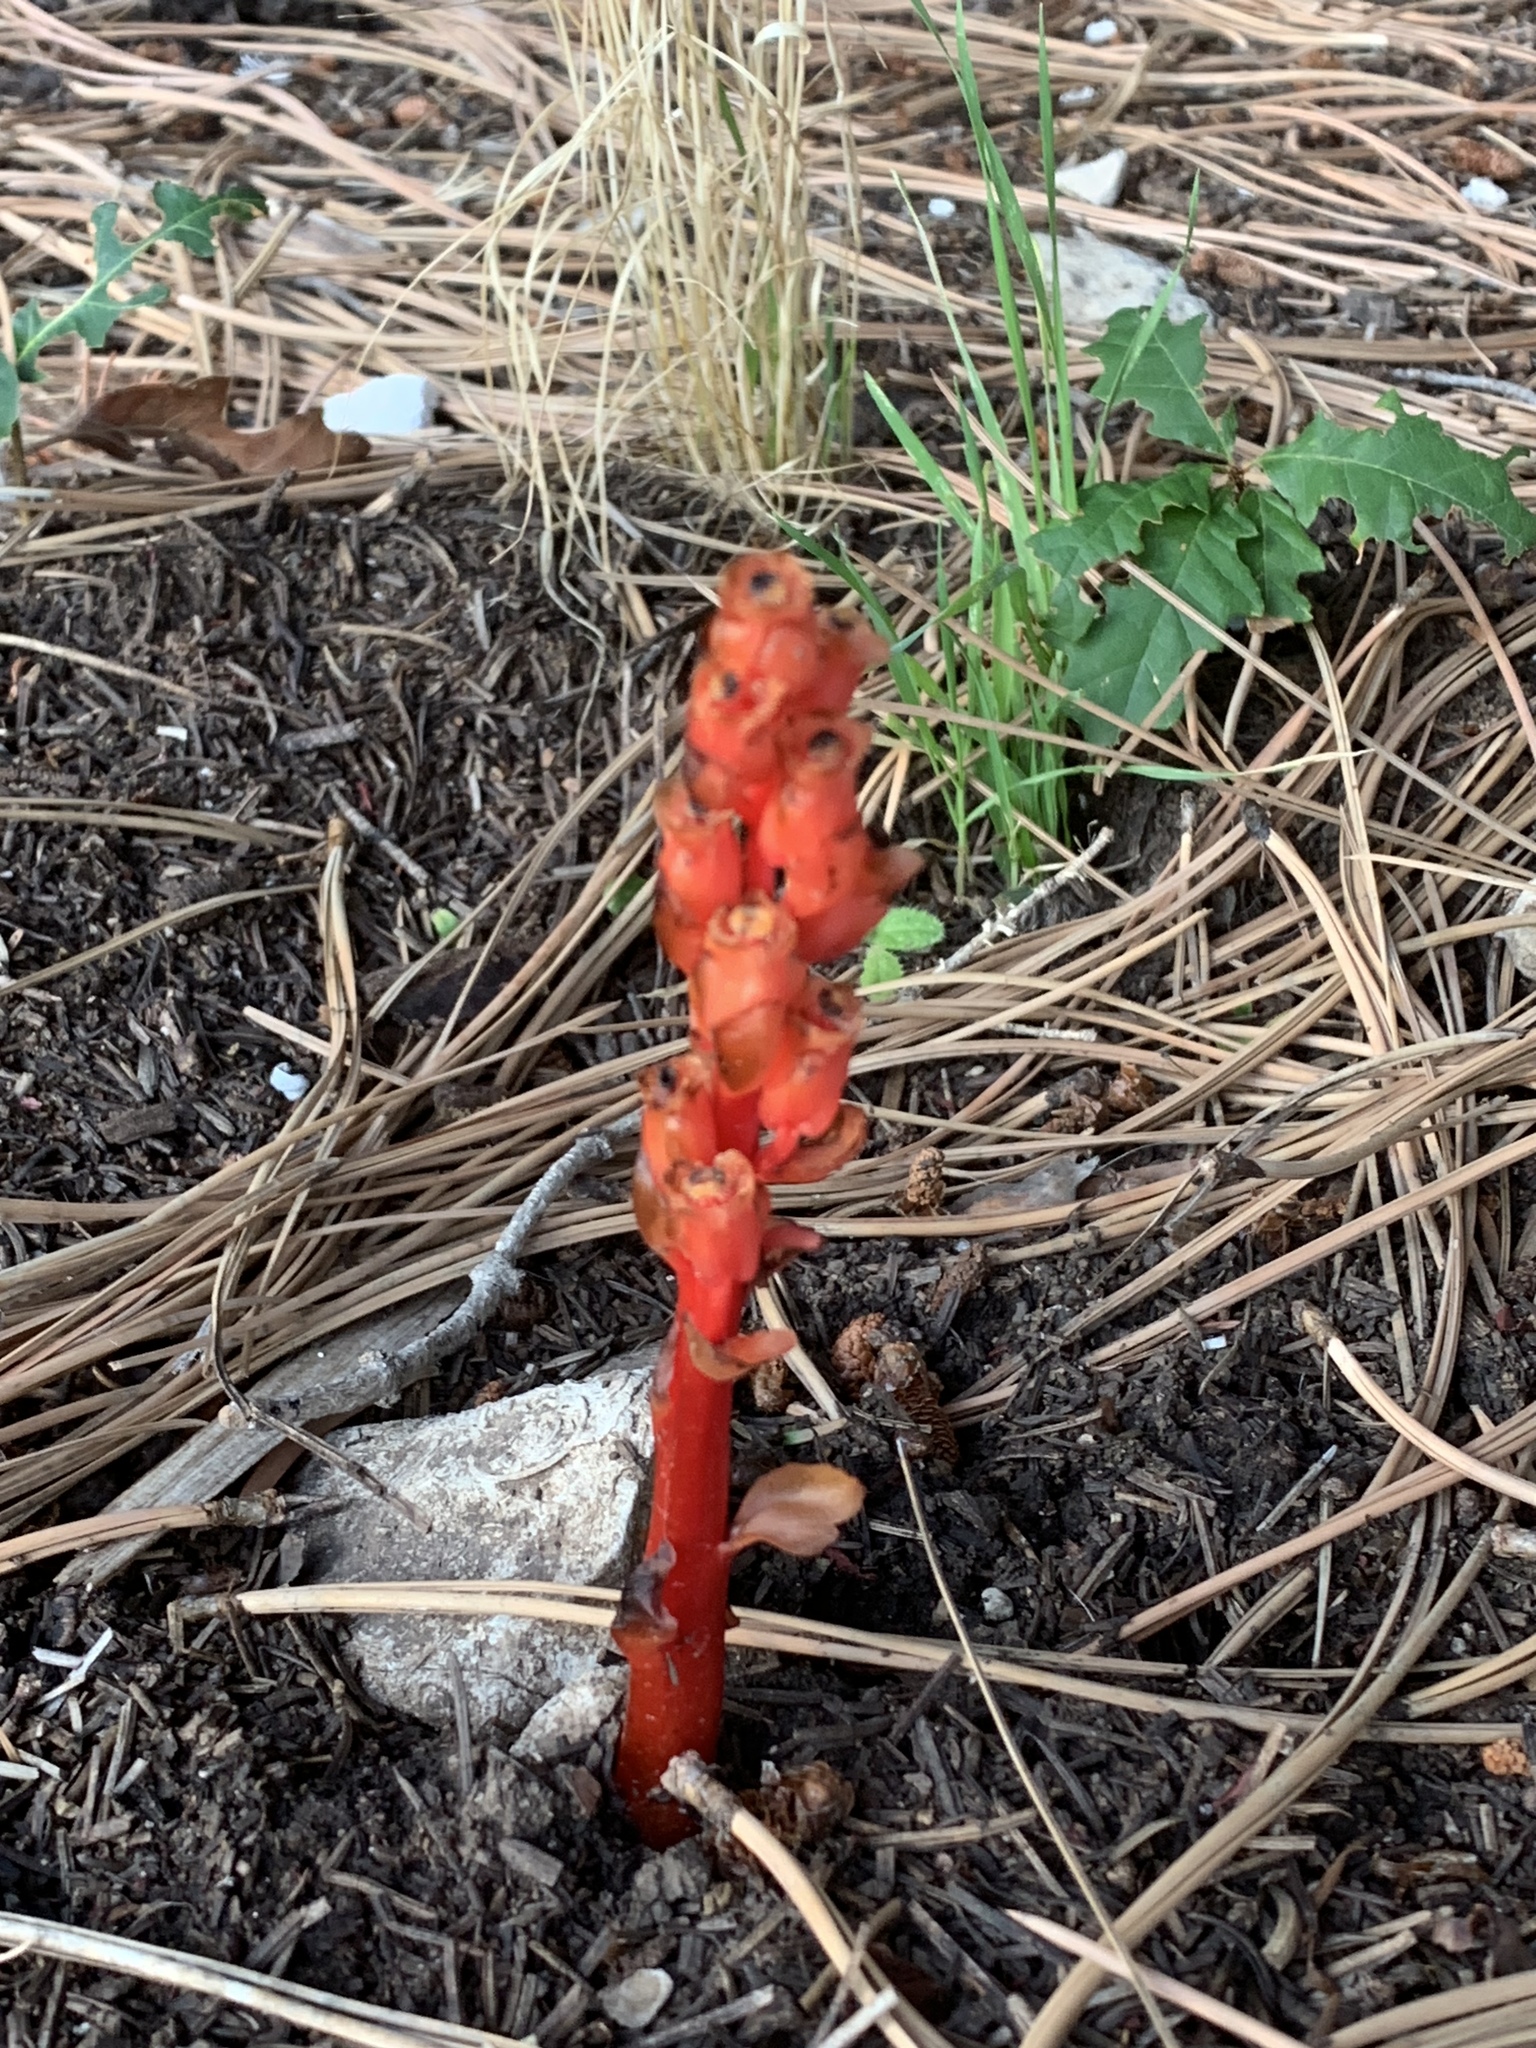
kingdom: Plantae
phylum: Tracheophyta
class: Magnoliopsida
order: Ericales
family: Ericaceae
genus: Hypopitys
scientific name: Hypopitys monotropa
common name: Yellow bird's-nest
